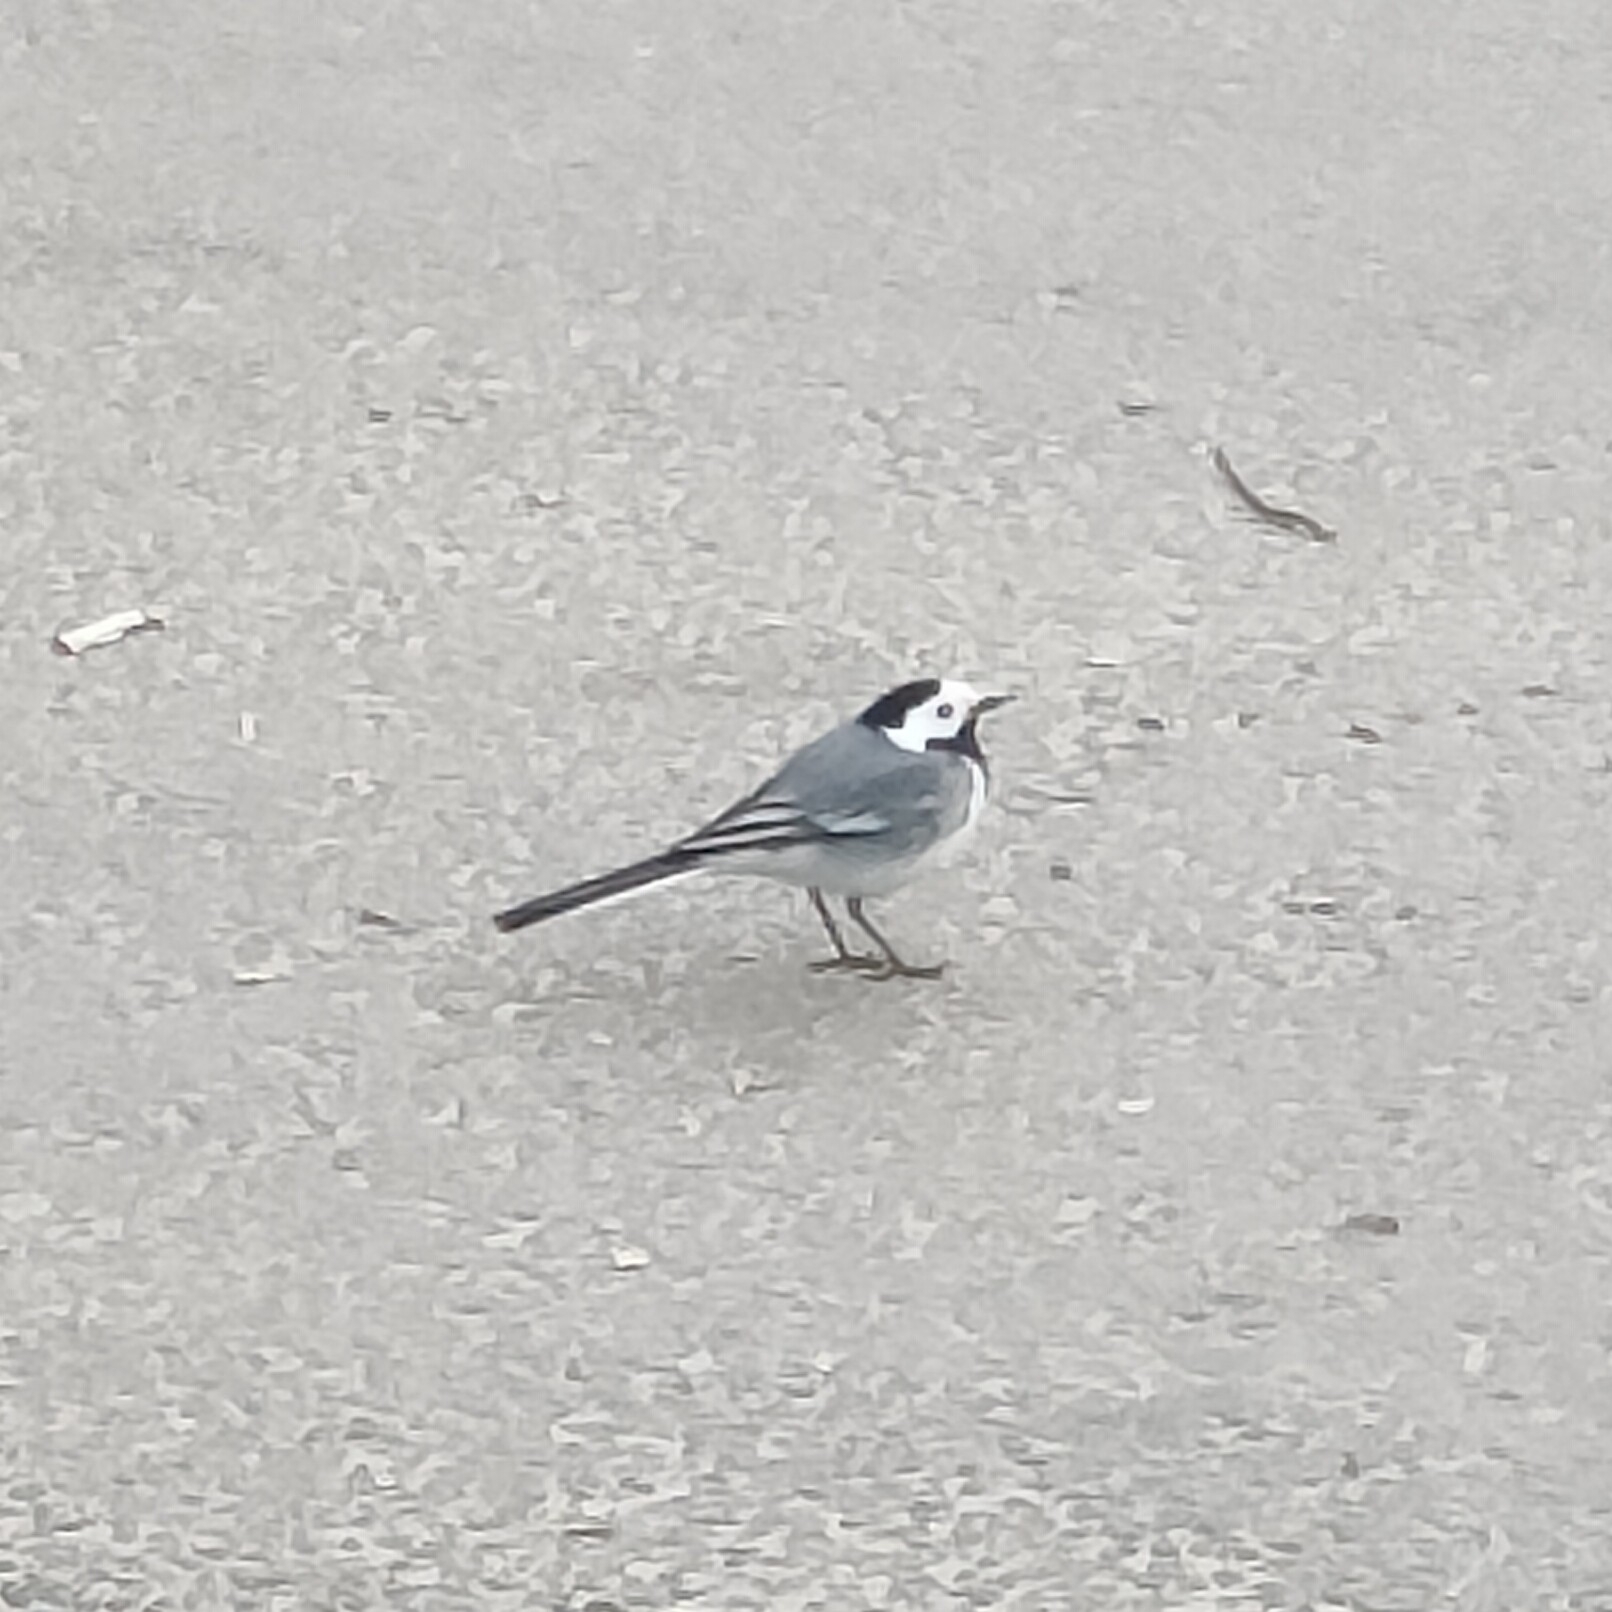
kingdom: Animalia
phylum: Chordata
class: Aves
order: Passeriformes
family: Motacillidae
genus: Motacilla
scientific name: Motacilla alba
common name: White wagtail
